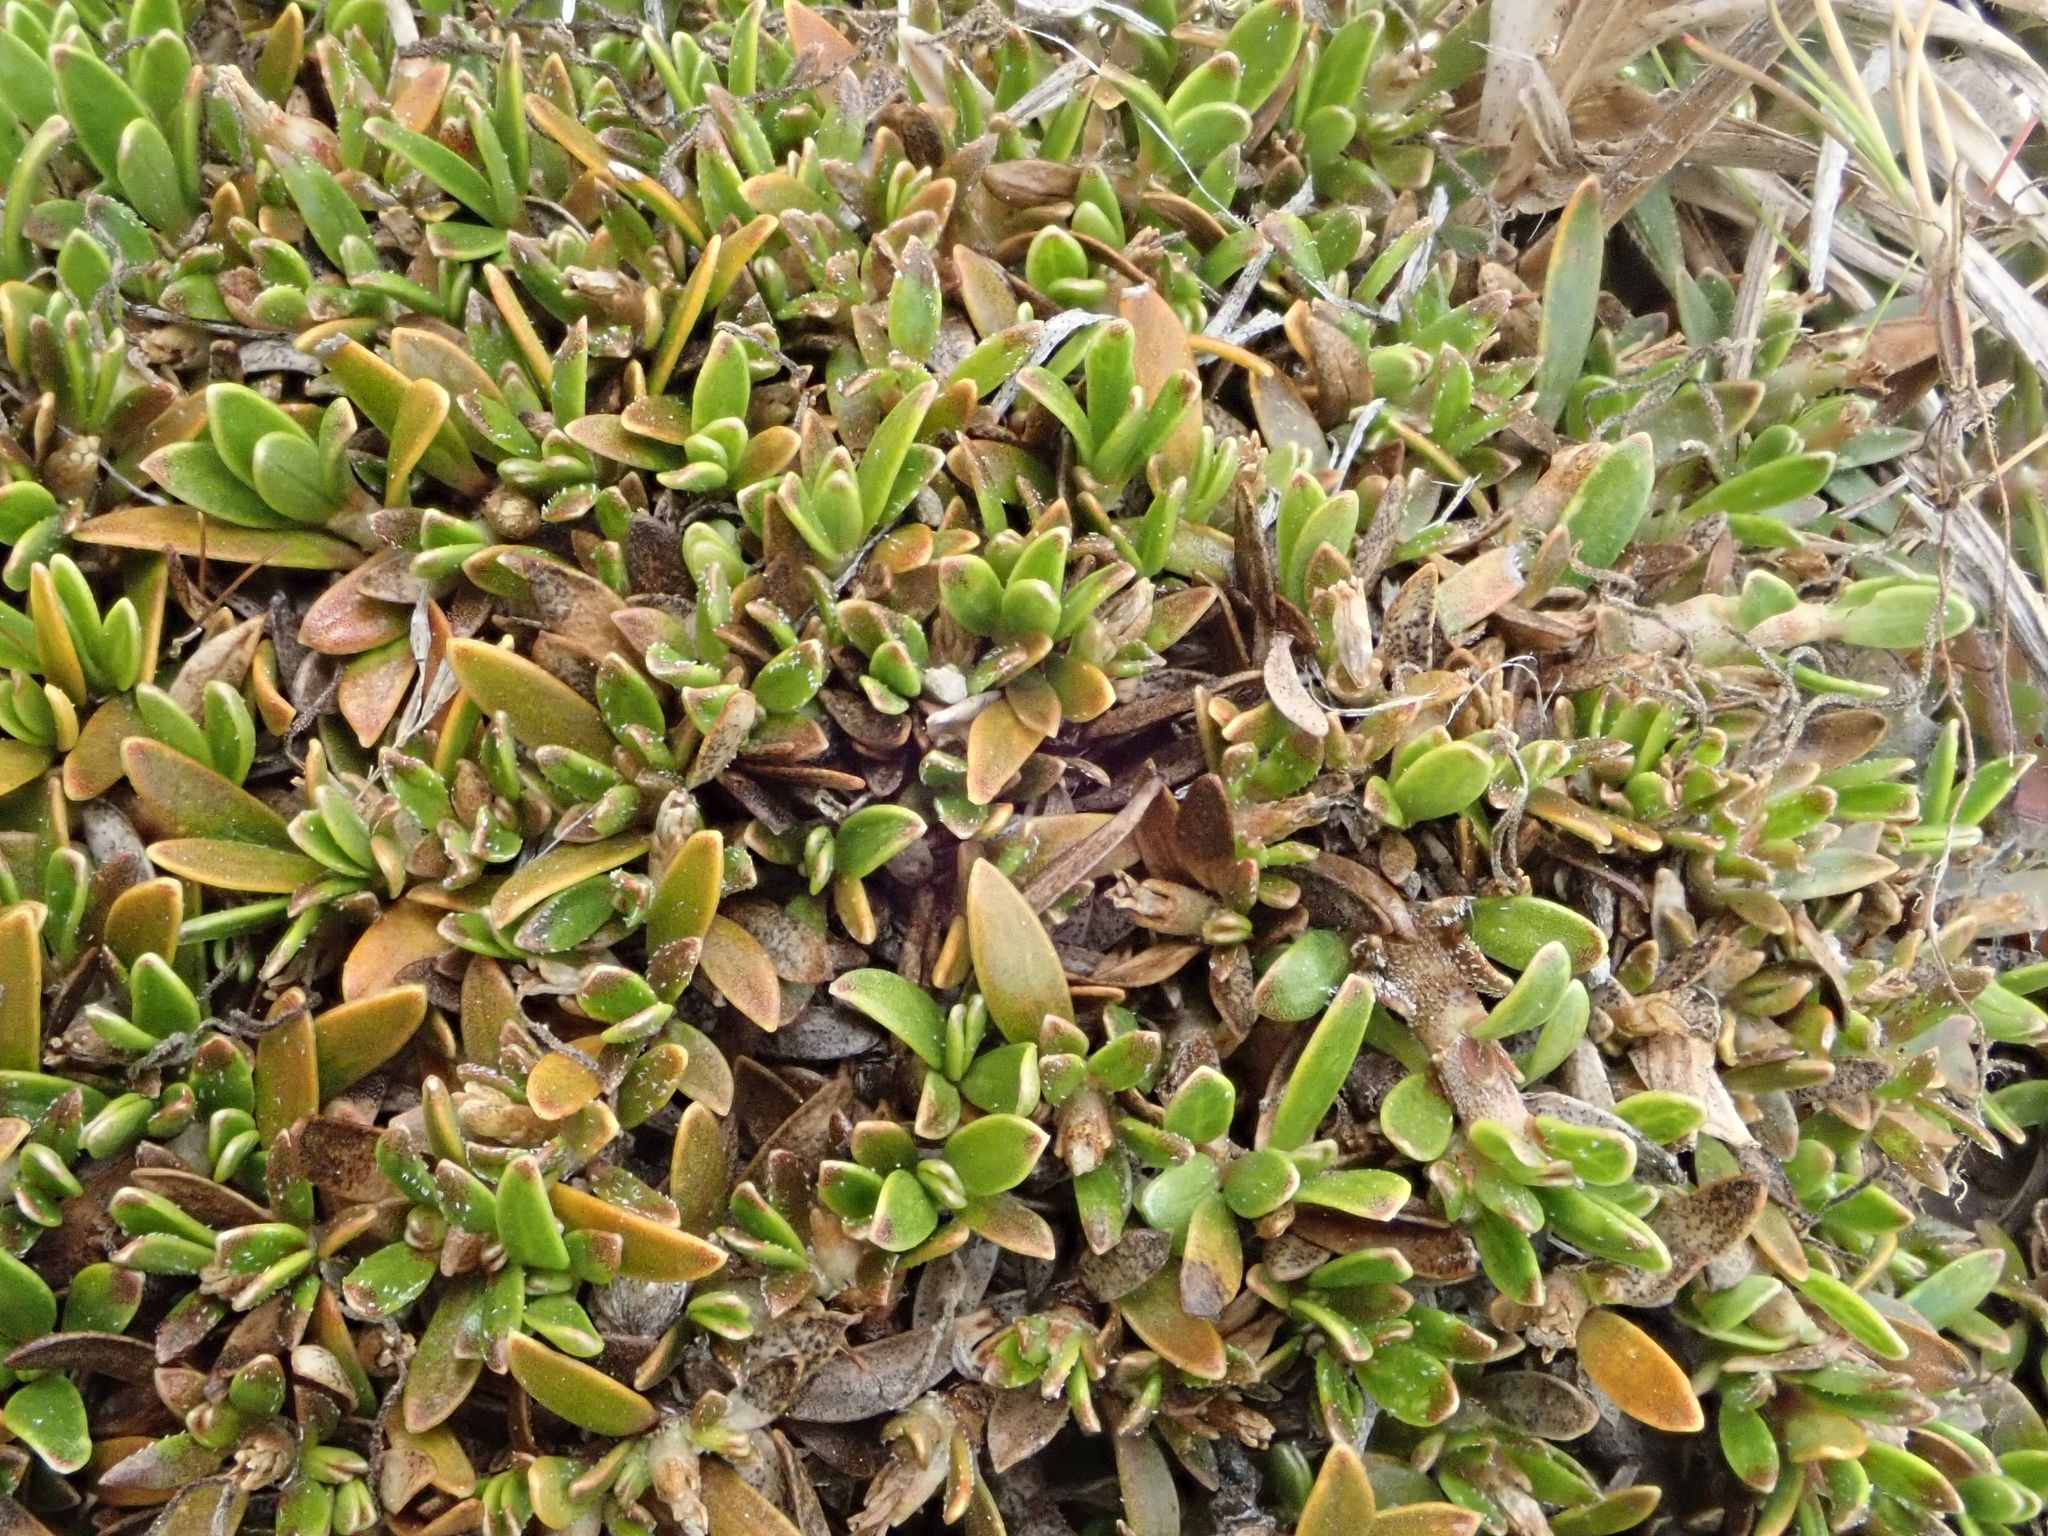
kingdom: Plantae
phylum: Tracheophyta
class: Magnoliopsida
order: Gentianales
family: Rubiaceae
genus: Coprosma
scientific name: Coprosma petriei
